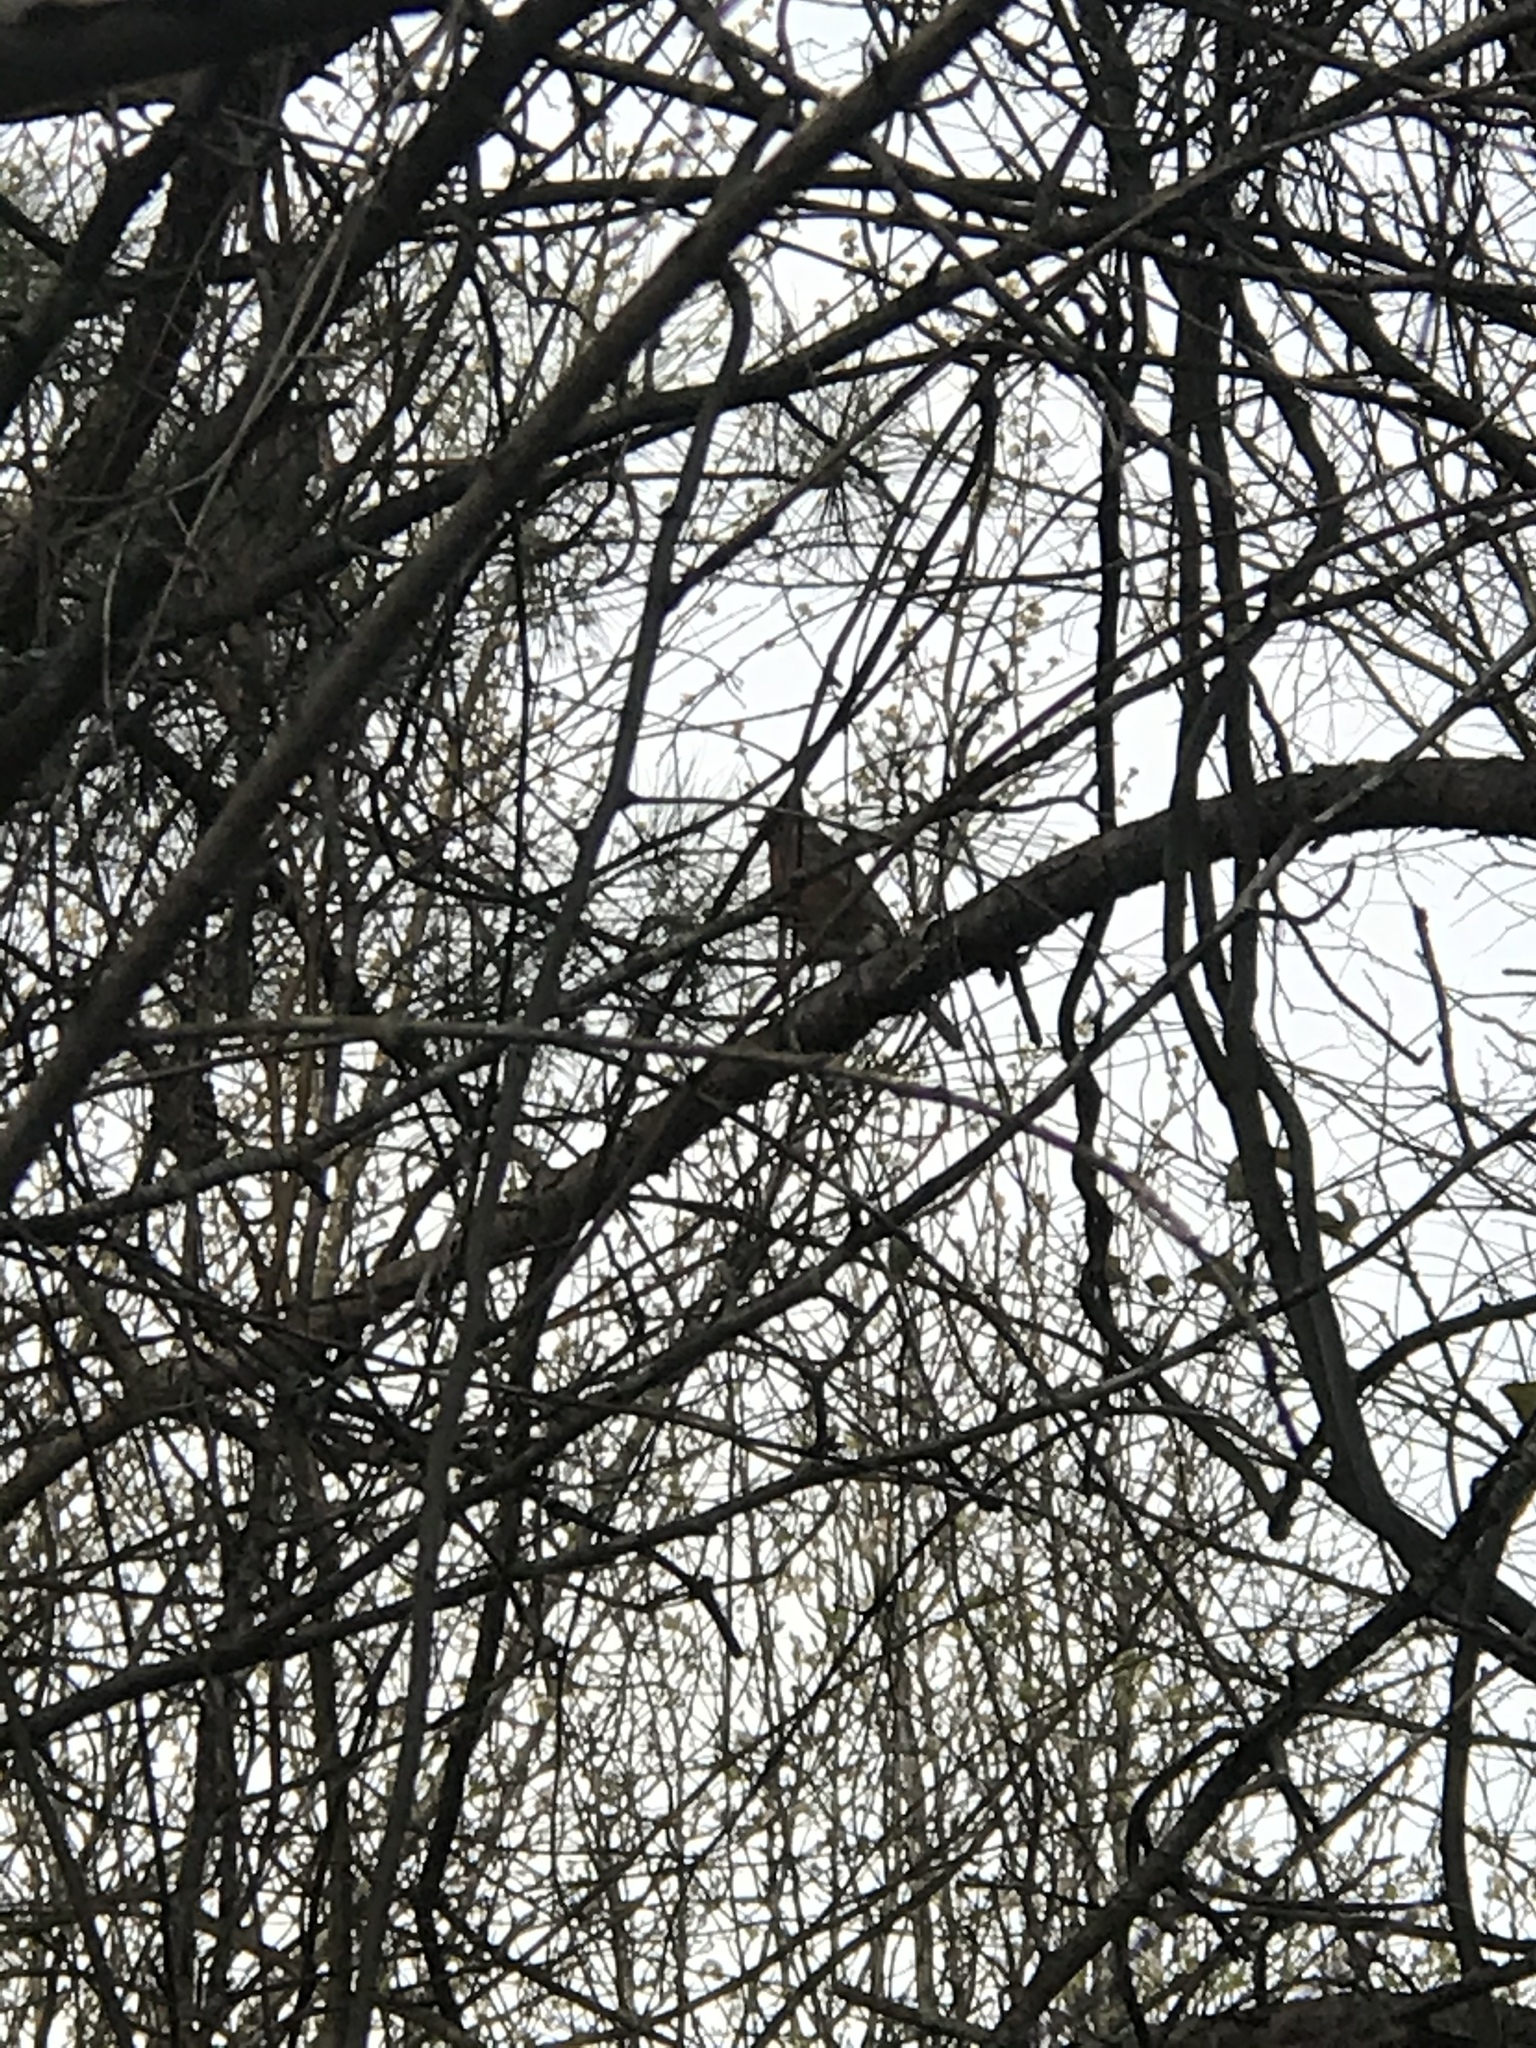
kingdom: Animalia
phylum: Chordata
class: Aves
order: Passeriformes
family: Turdidae
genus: Turdus
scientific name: Turdus migratorius
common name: American robin
